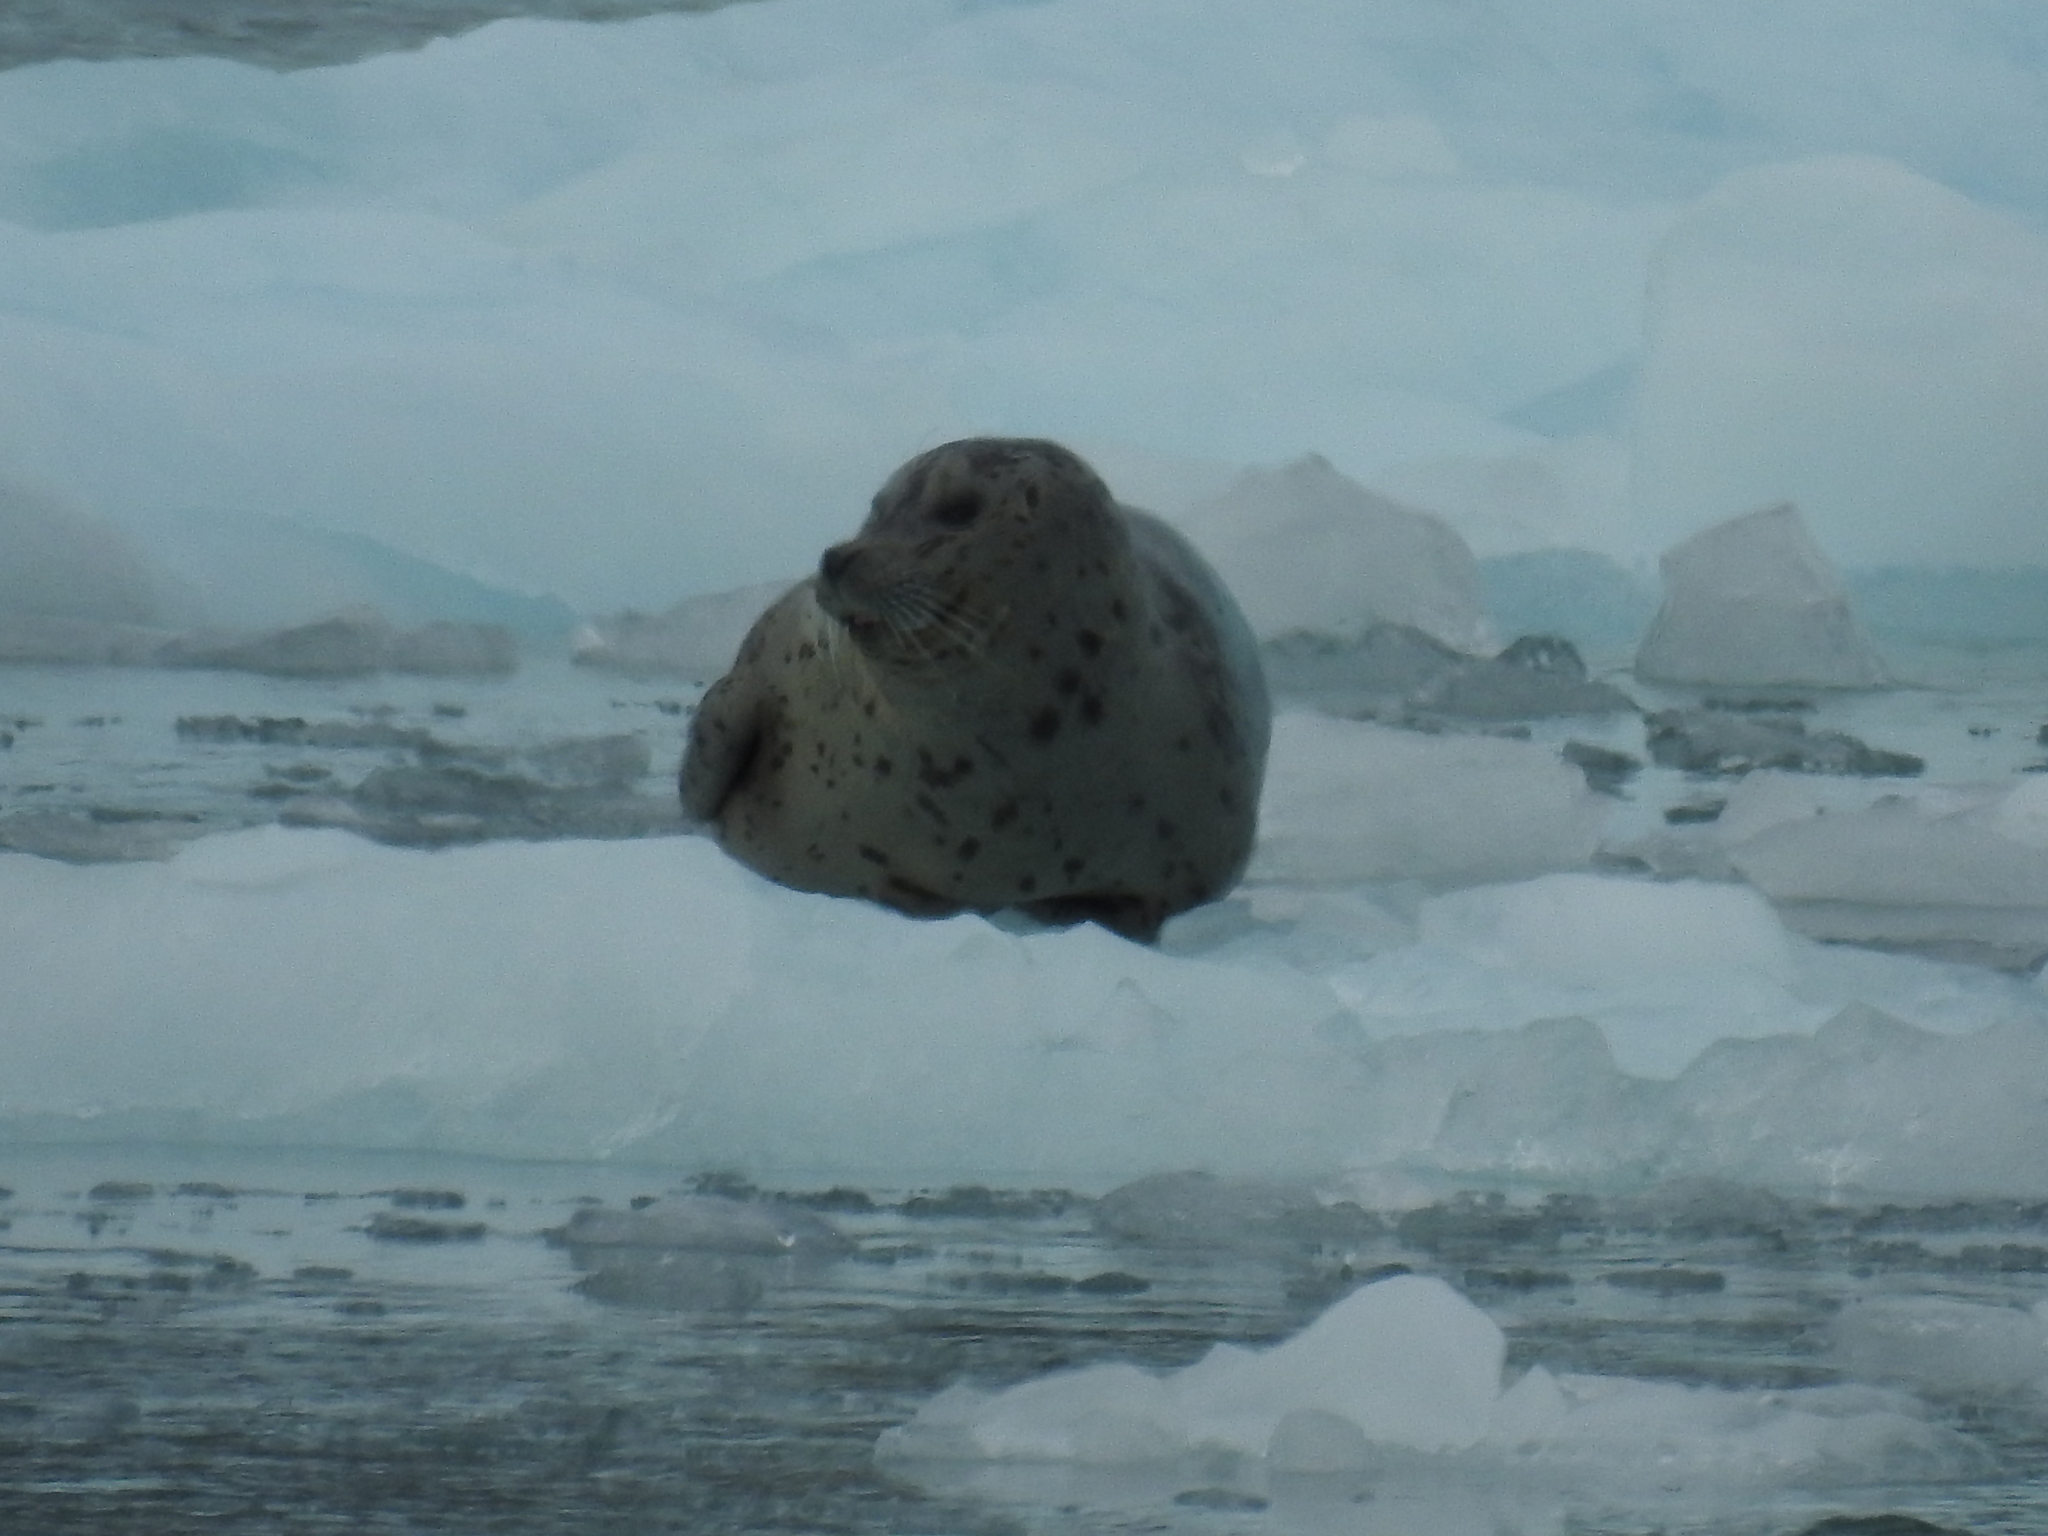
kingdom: Animalia
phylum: Chordata
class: Mammalia
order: Carnivora
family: Phocidae
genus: Phoca
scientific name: Phoca vitulina
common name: Harbor seal
